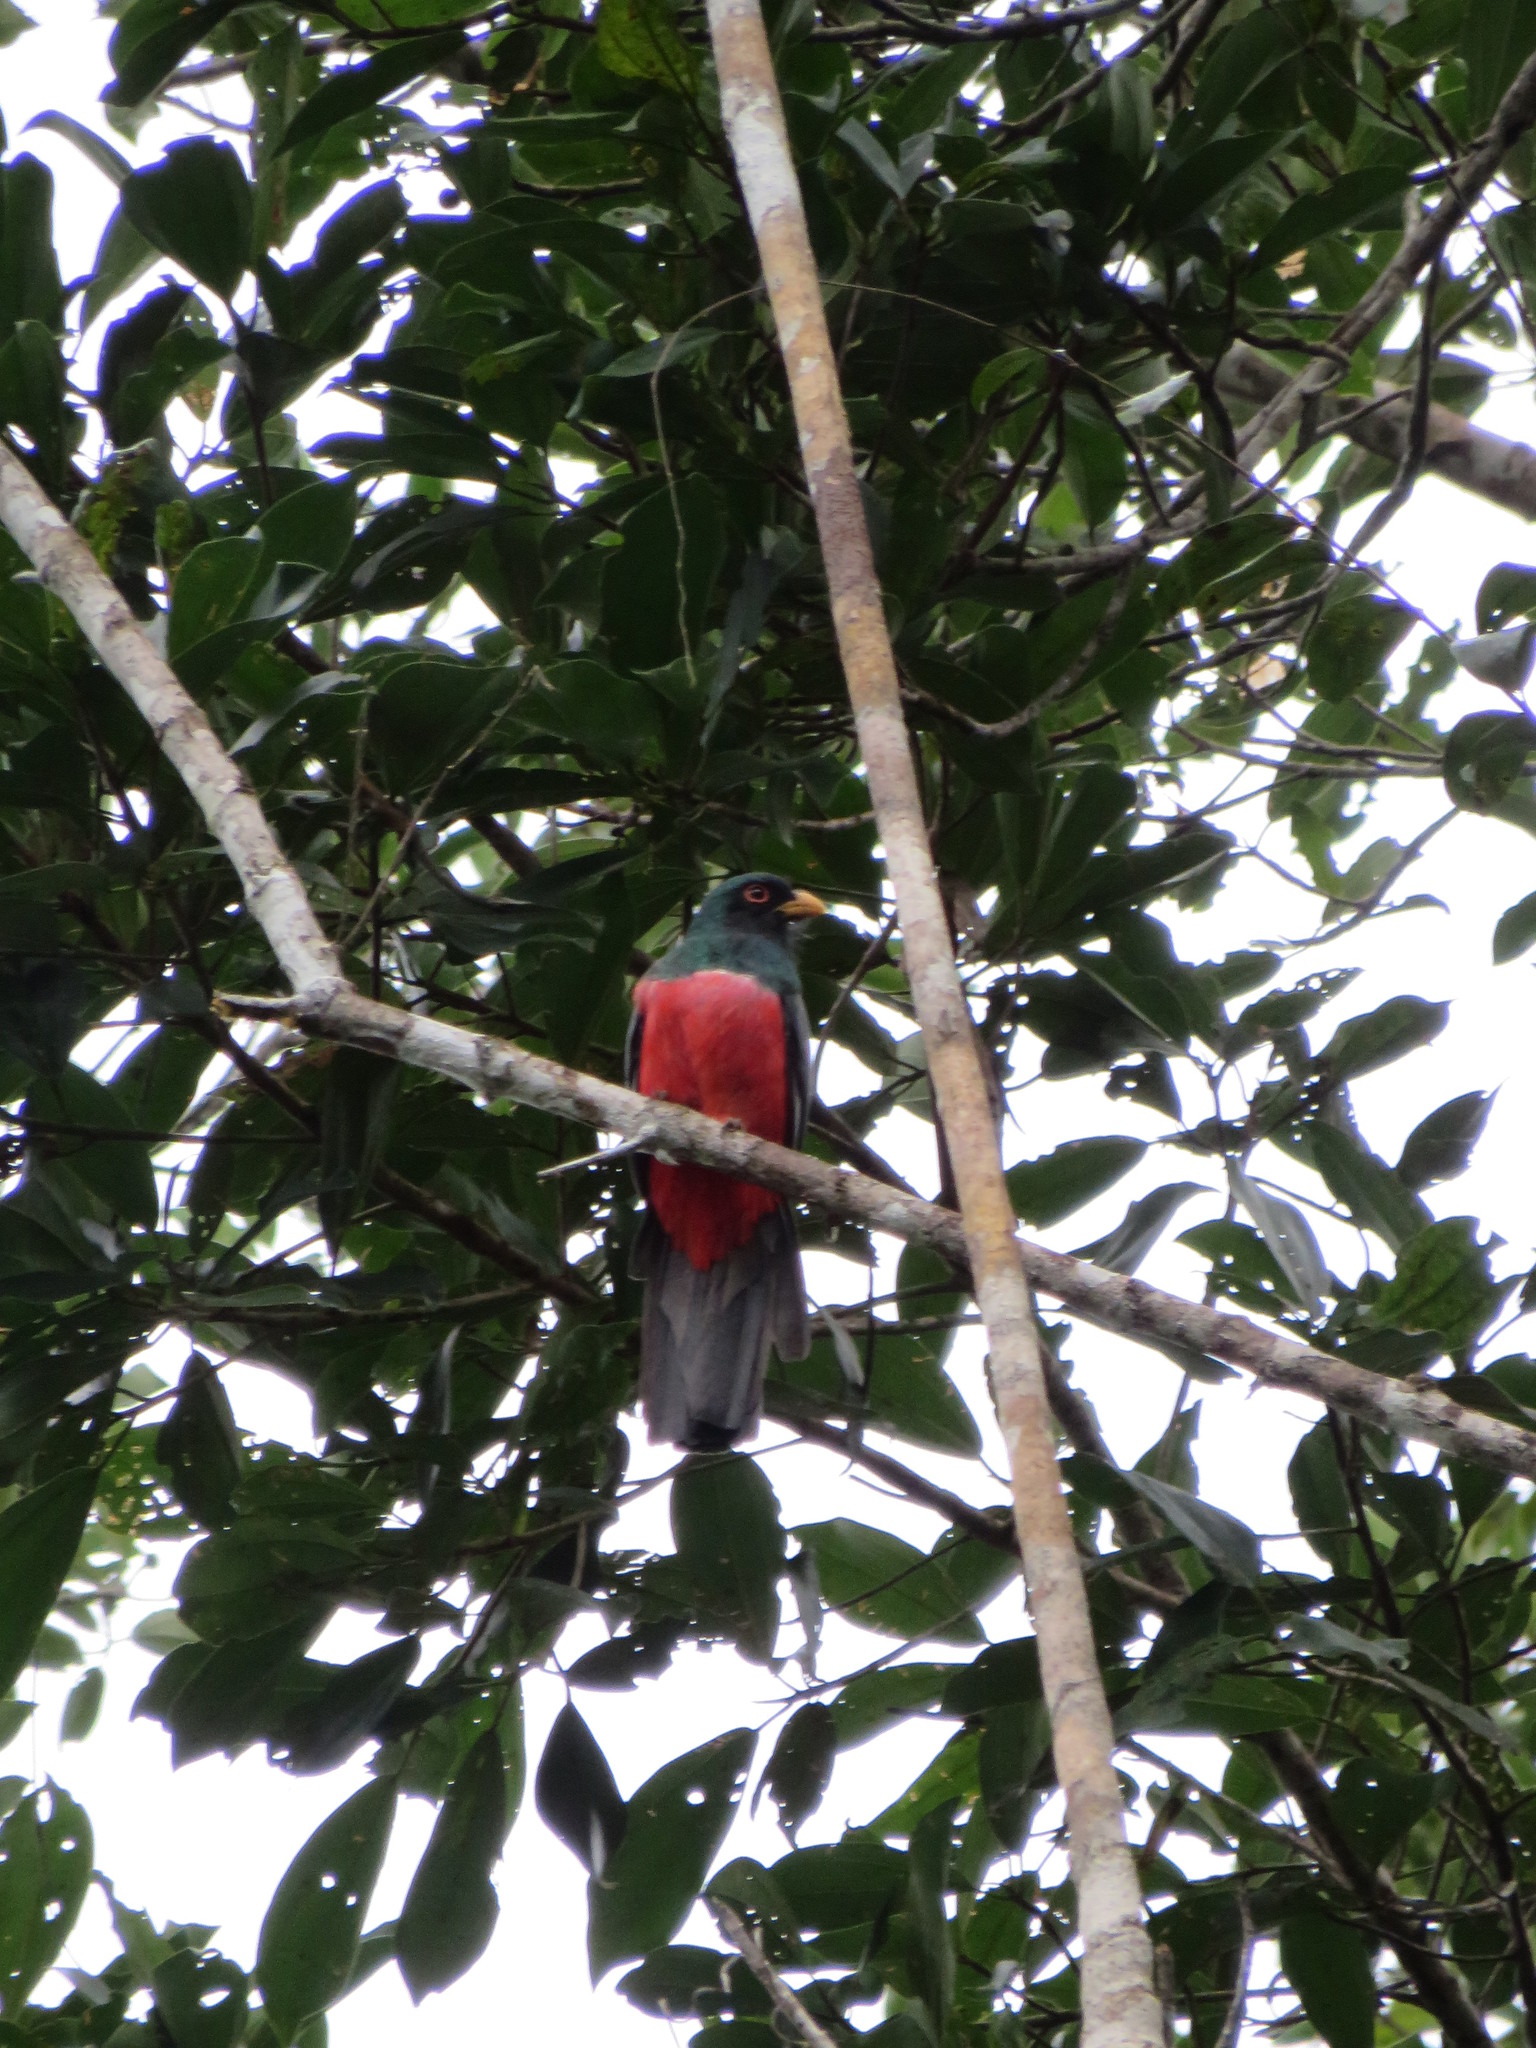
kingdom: Animalia
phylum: Chordata
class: Aves
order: Trogoniformes
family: Trogonidae
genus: Trogon
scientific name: Trogon melanurus
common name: Black-tailed trogon
